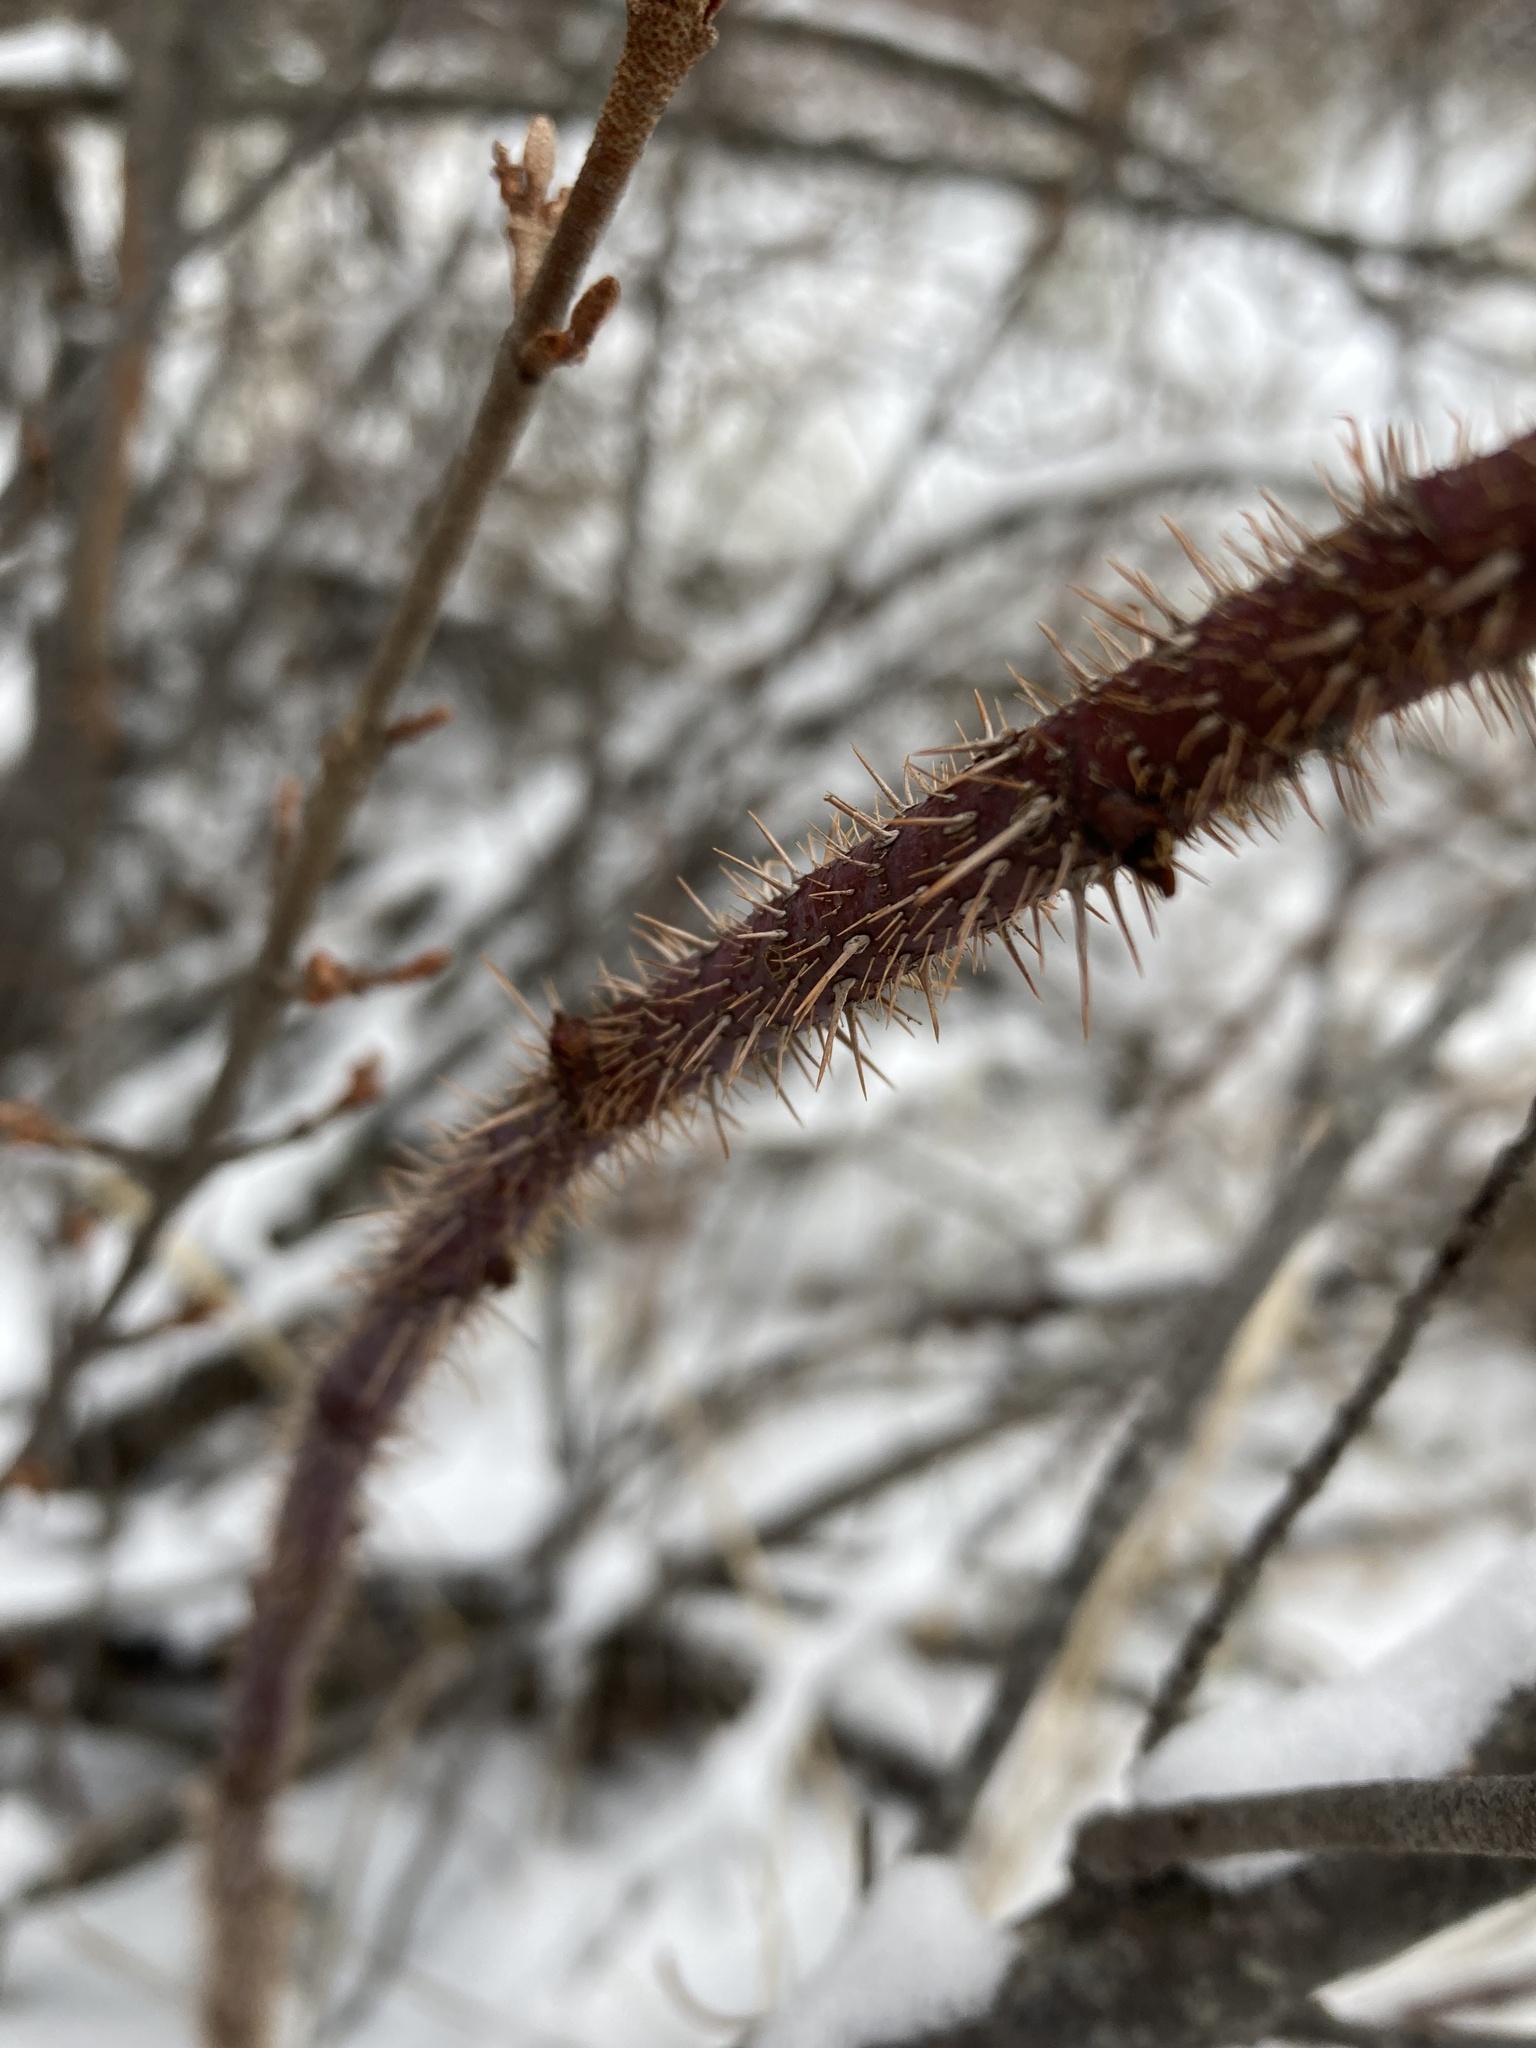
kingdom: Plantae
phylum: Tracheophyta
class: Magnoliopsida
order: Rosales
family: Rosaceae
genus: Rosa
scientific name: Rosa acicularis
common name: Prickly rose
